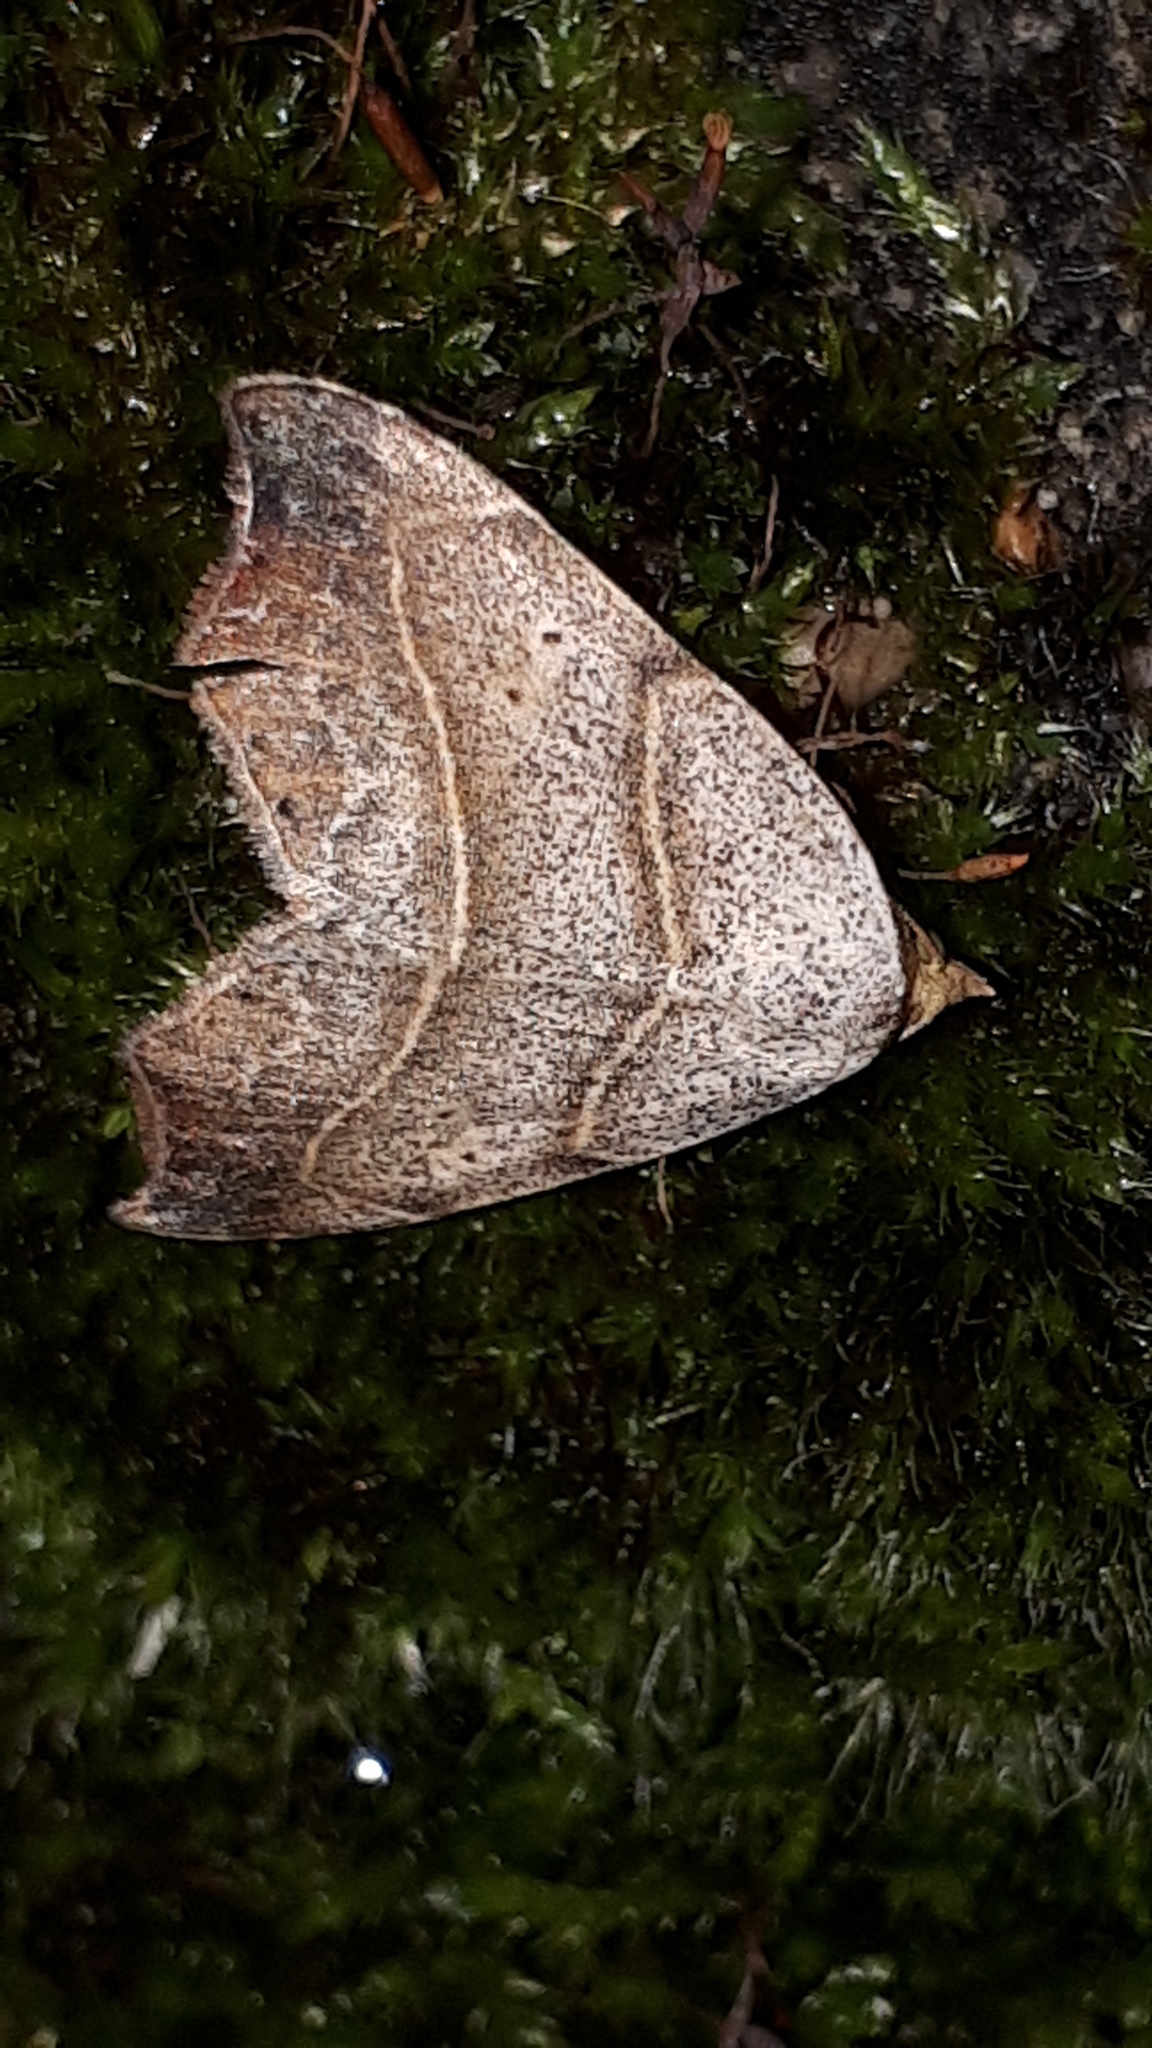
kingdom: Animalia
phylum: Arthropoda
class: Insecta
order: Lepidoptera
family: Erebidae
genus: Laspeyria
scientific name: Laspeyria flexula
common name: Beautiful hook-tip
